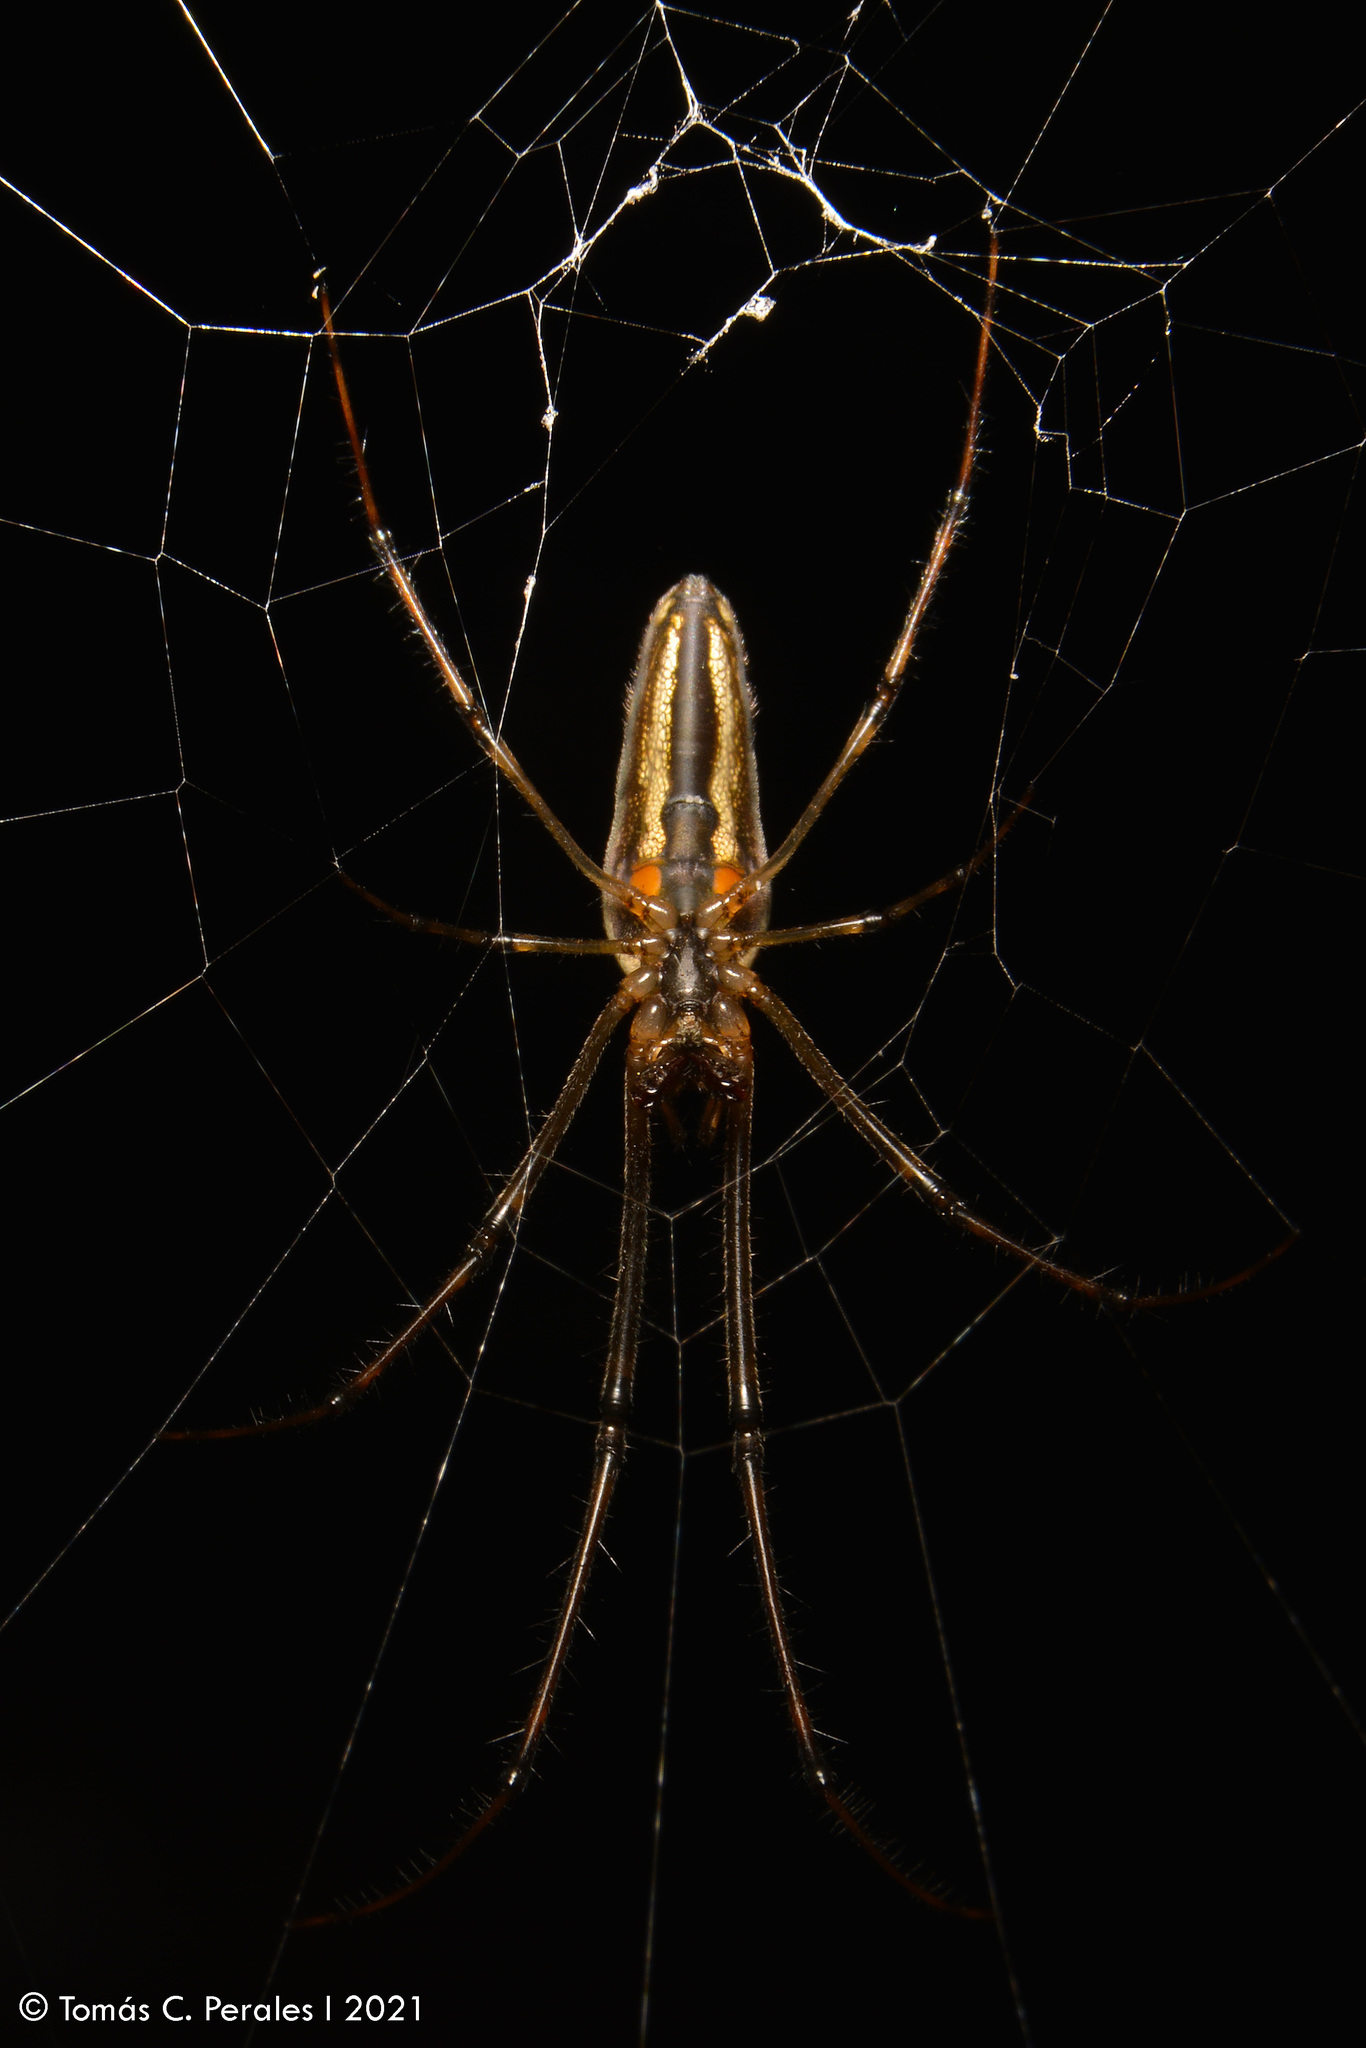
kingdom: Animalia
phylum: Arthropoda
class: Arachnida
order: Araneae
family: Tetragnathidae
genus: Tetragnatha
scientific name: Tetragnatha
